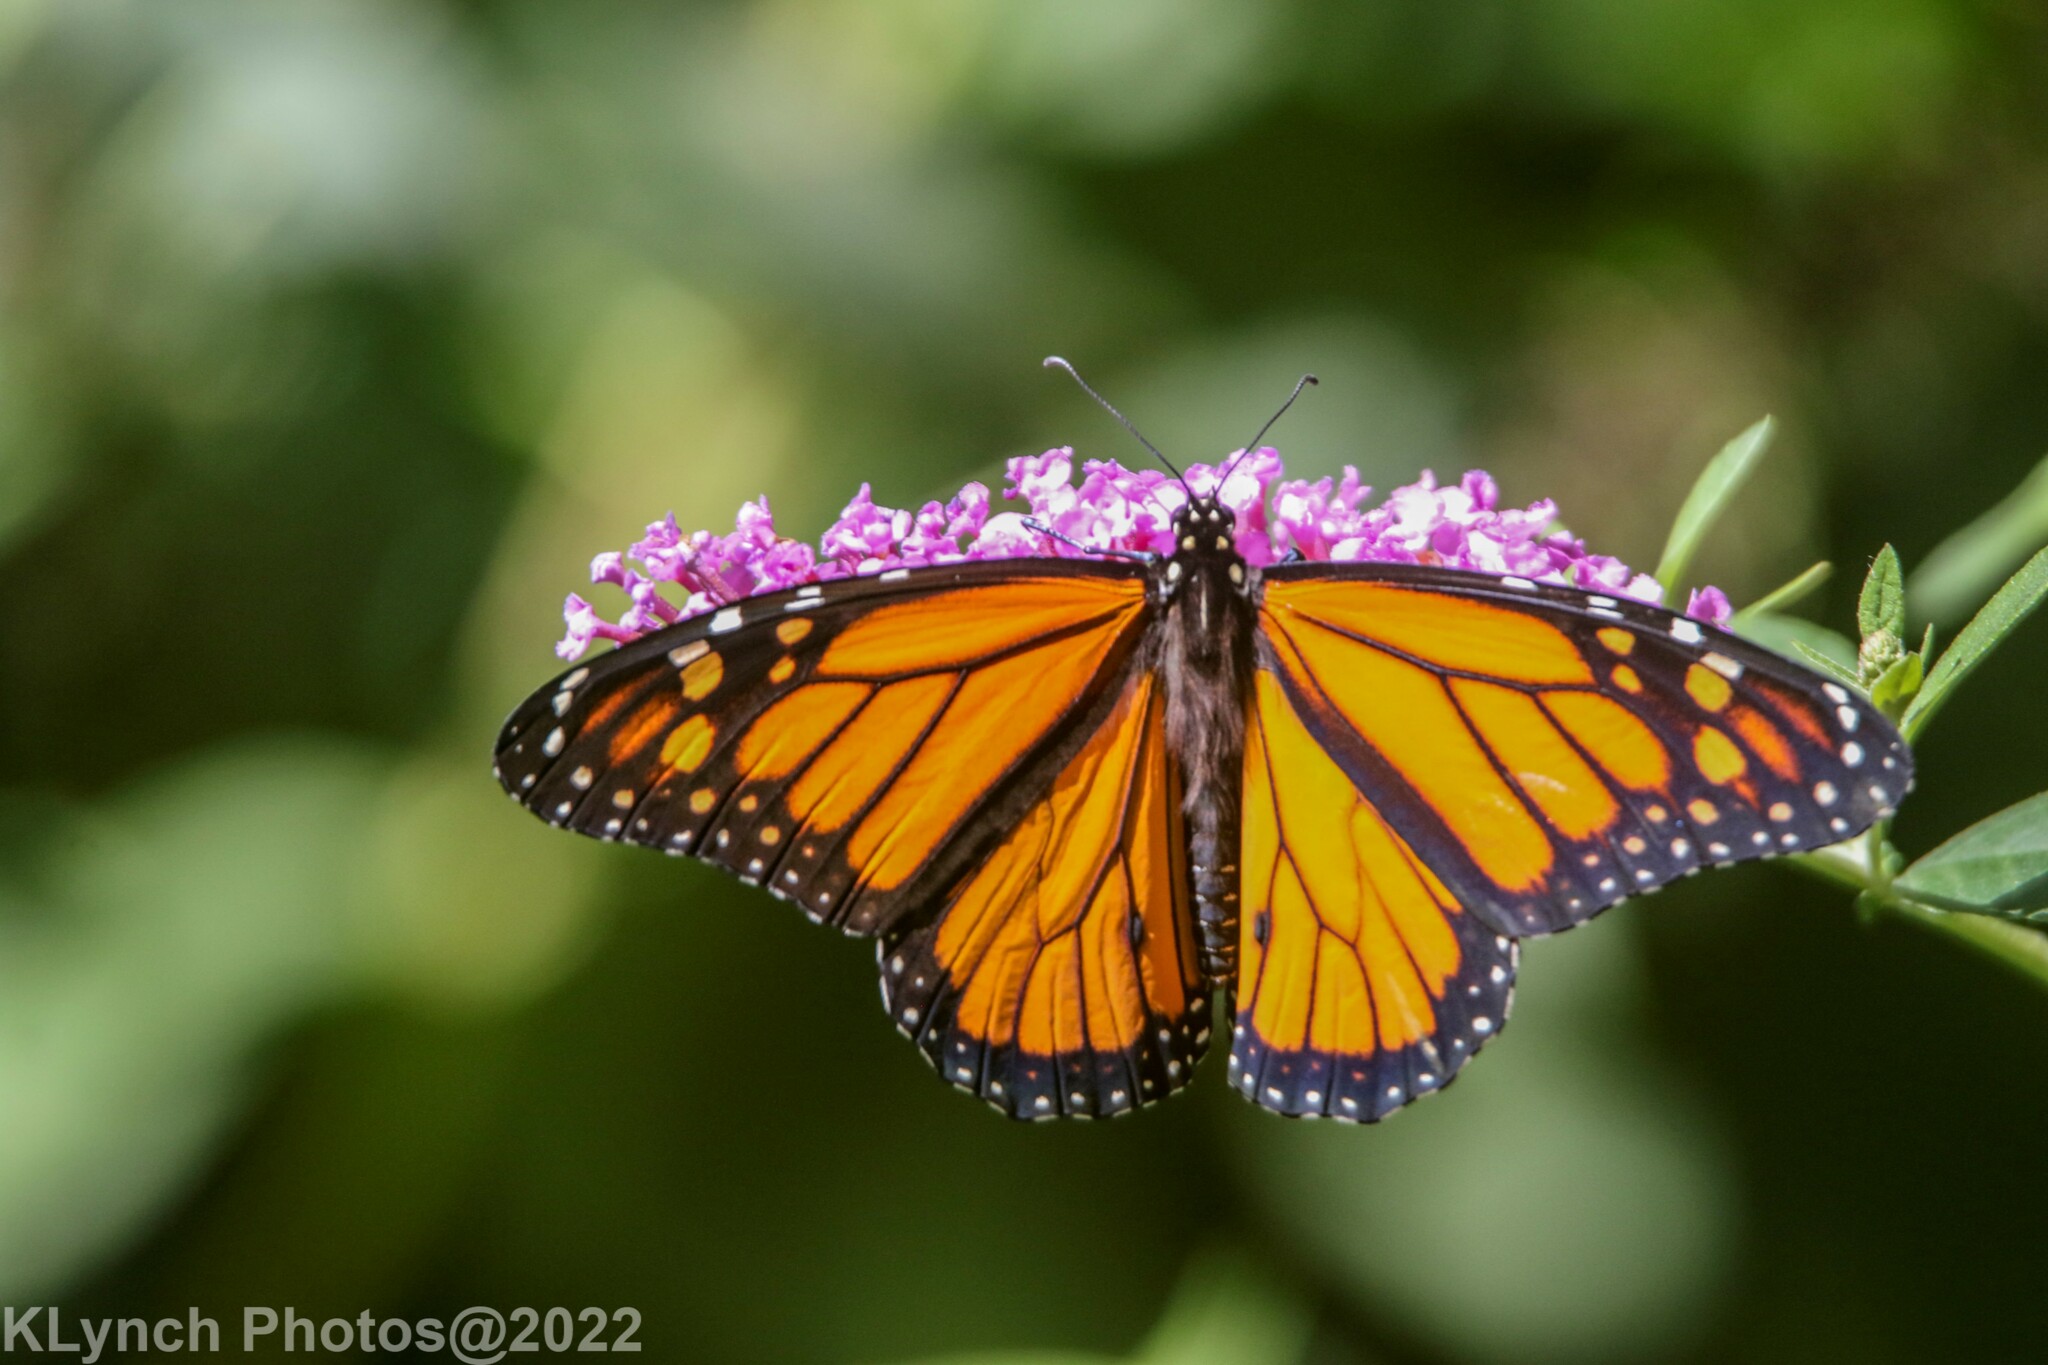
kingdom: Animalia
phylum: Arthropoda
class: Insecta
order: Lepidoptera
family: Nymphalidae
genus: Danaus
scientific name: Danaus plexippus
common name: Monarch
